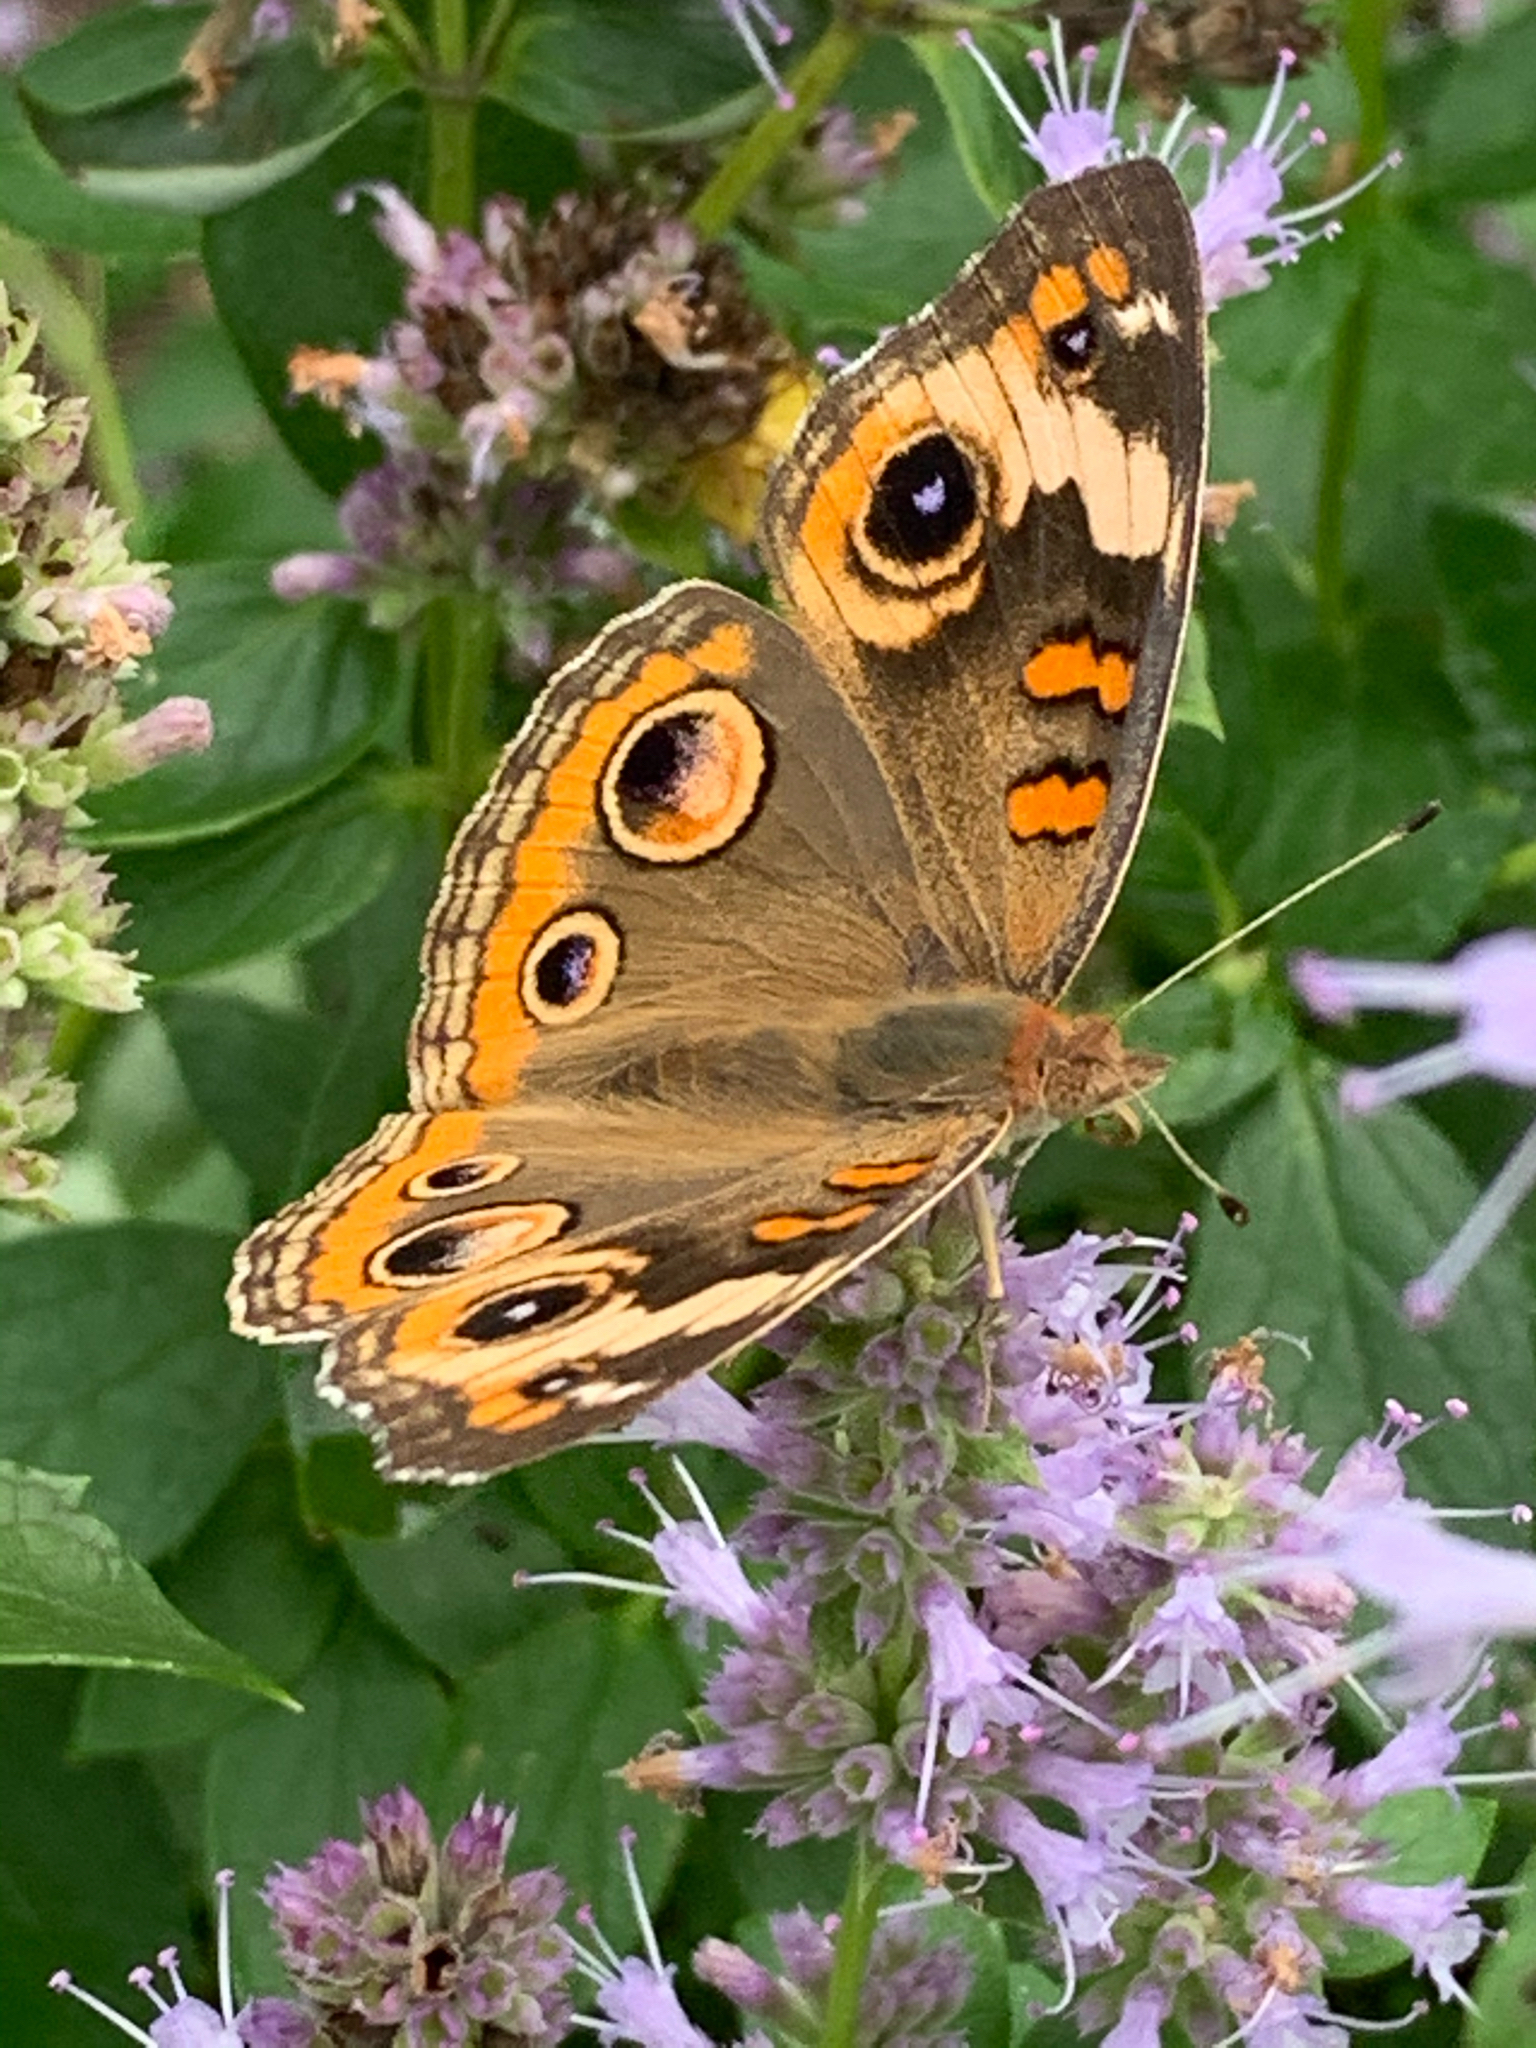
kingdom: Animalia
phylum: Arthropoda
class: Insecta
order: Lepidoptera
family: Nymphalidae
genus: Junonia
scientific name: Junonia coenia
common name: Common buckeye
